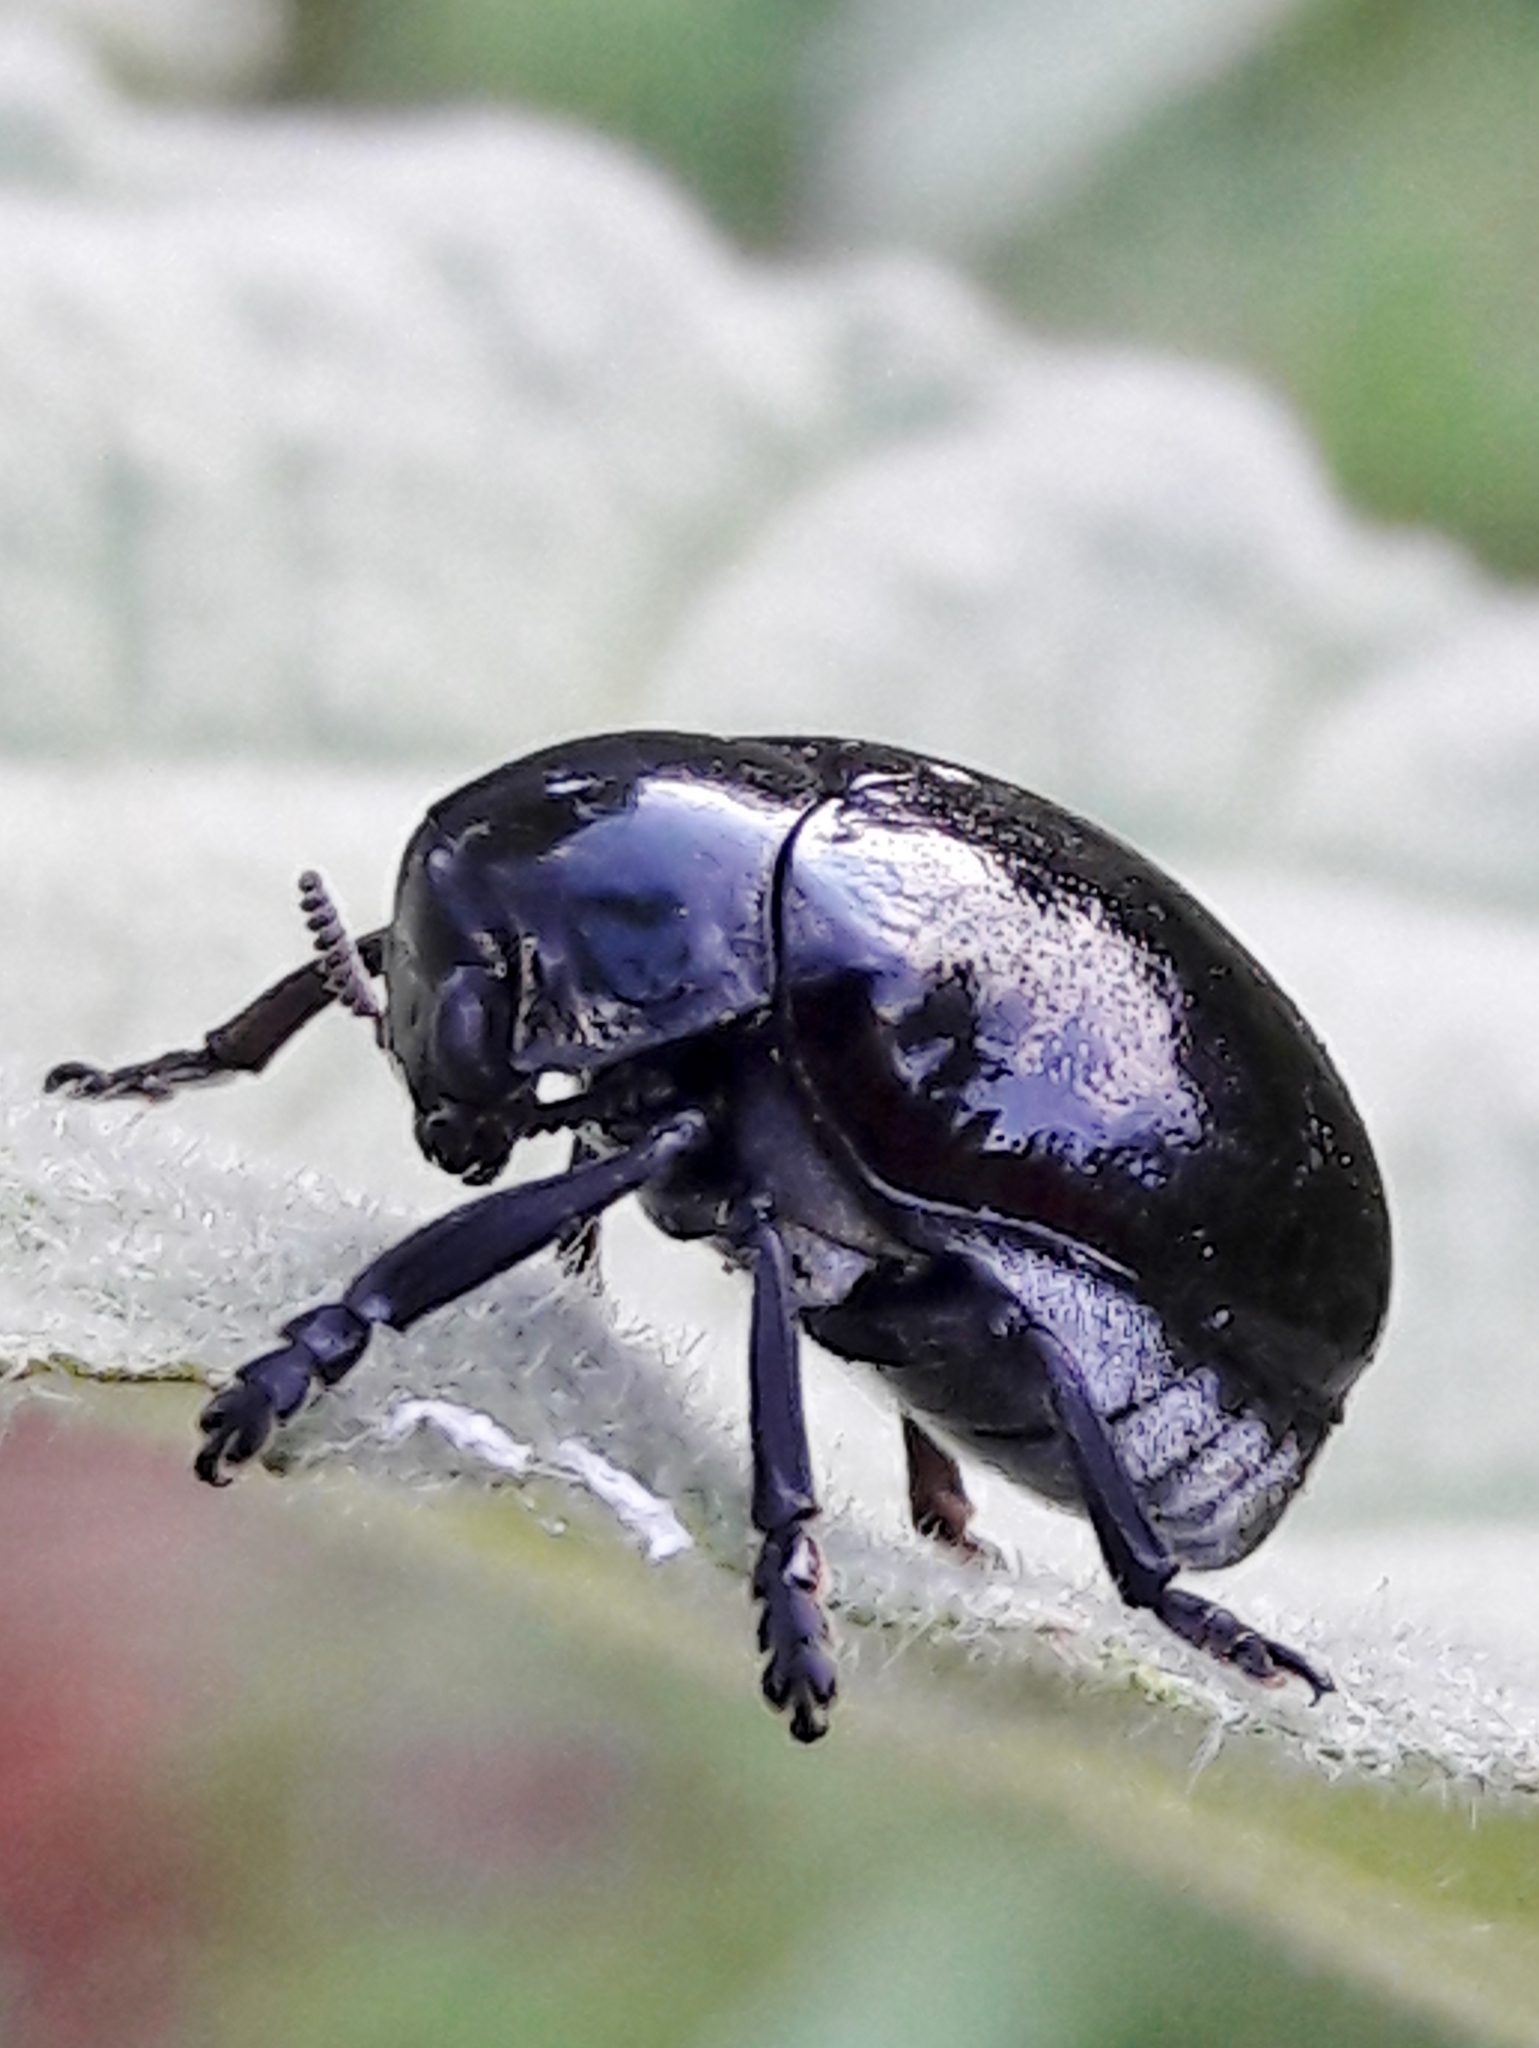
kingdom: Animalia
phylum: Arthropoda
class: Insecta
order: Coleoptera
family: Chrysomelidae
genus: Stereoma
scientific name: Stereoma
